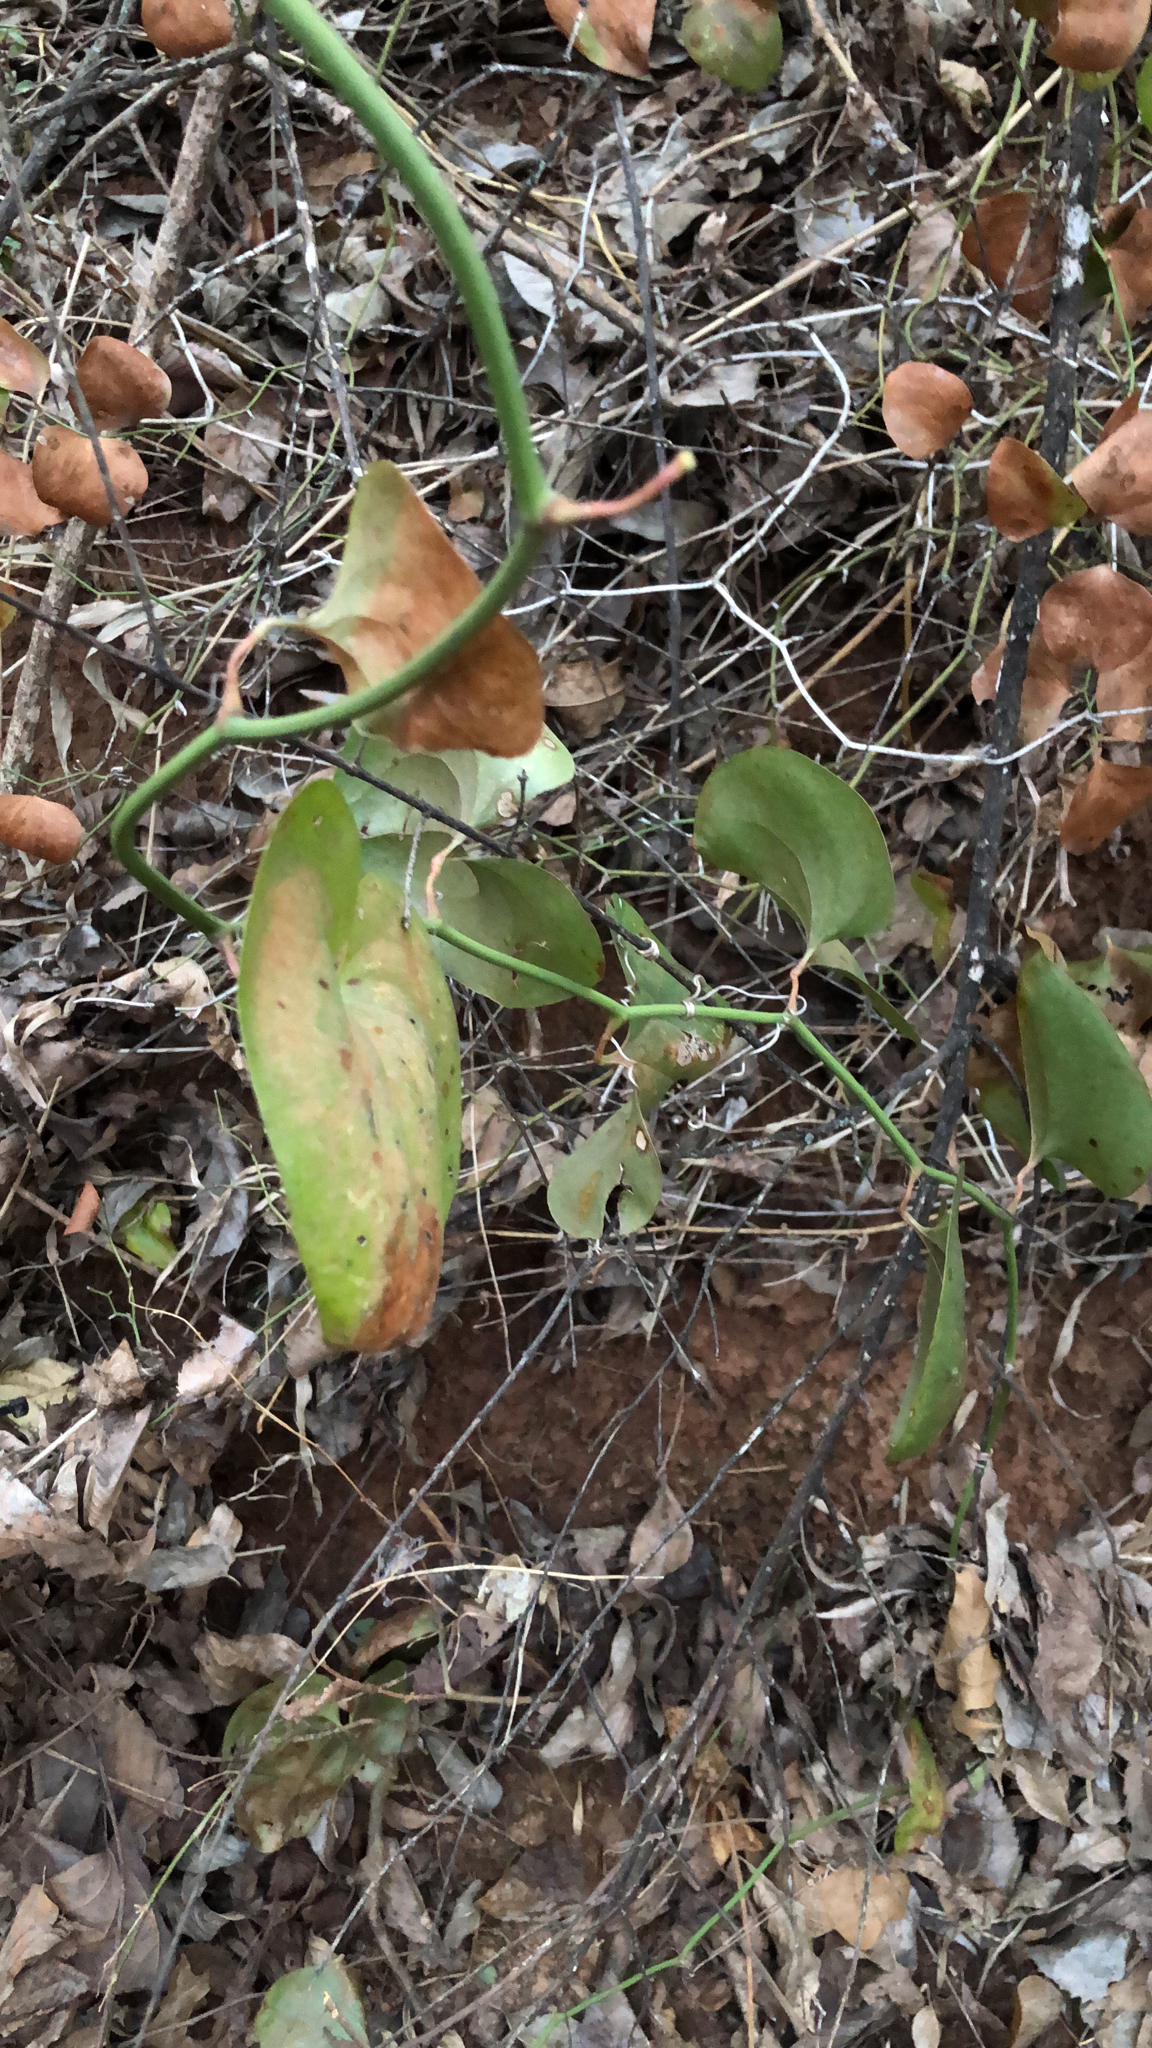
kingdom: Plantae
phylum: Tracheophyta
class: Liliopsida
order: Liliales
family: Smilacaceae
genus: Smilax
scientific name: Smilax bona-nox
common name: Catbrier
